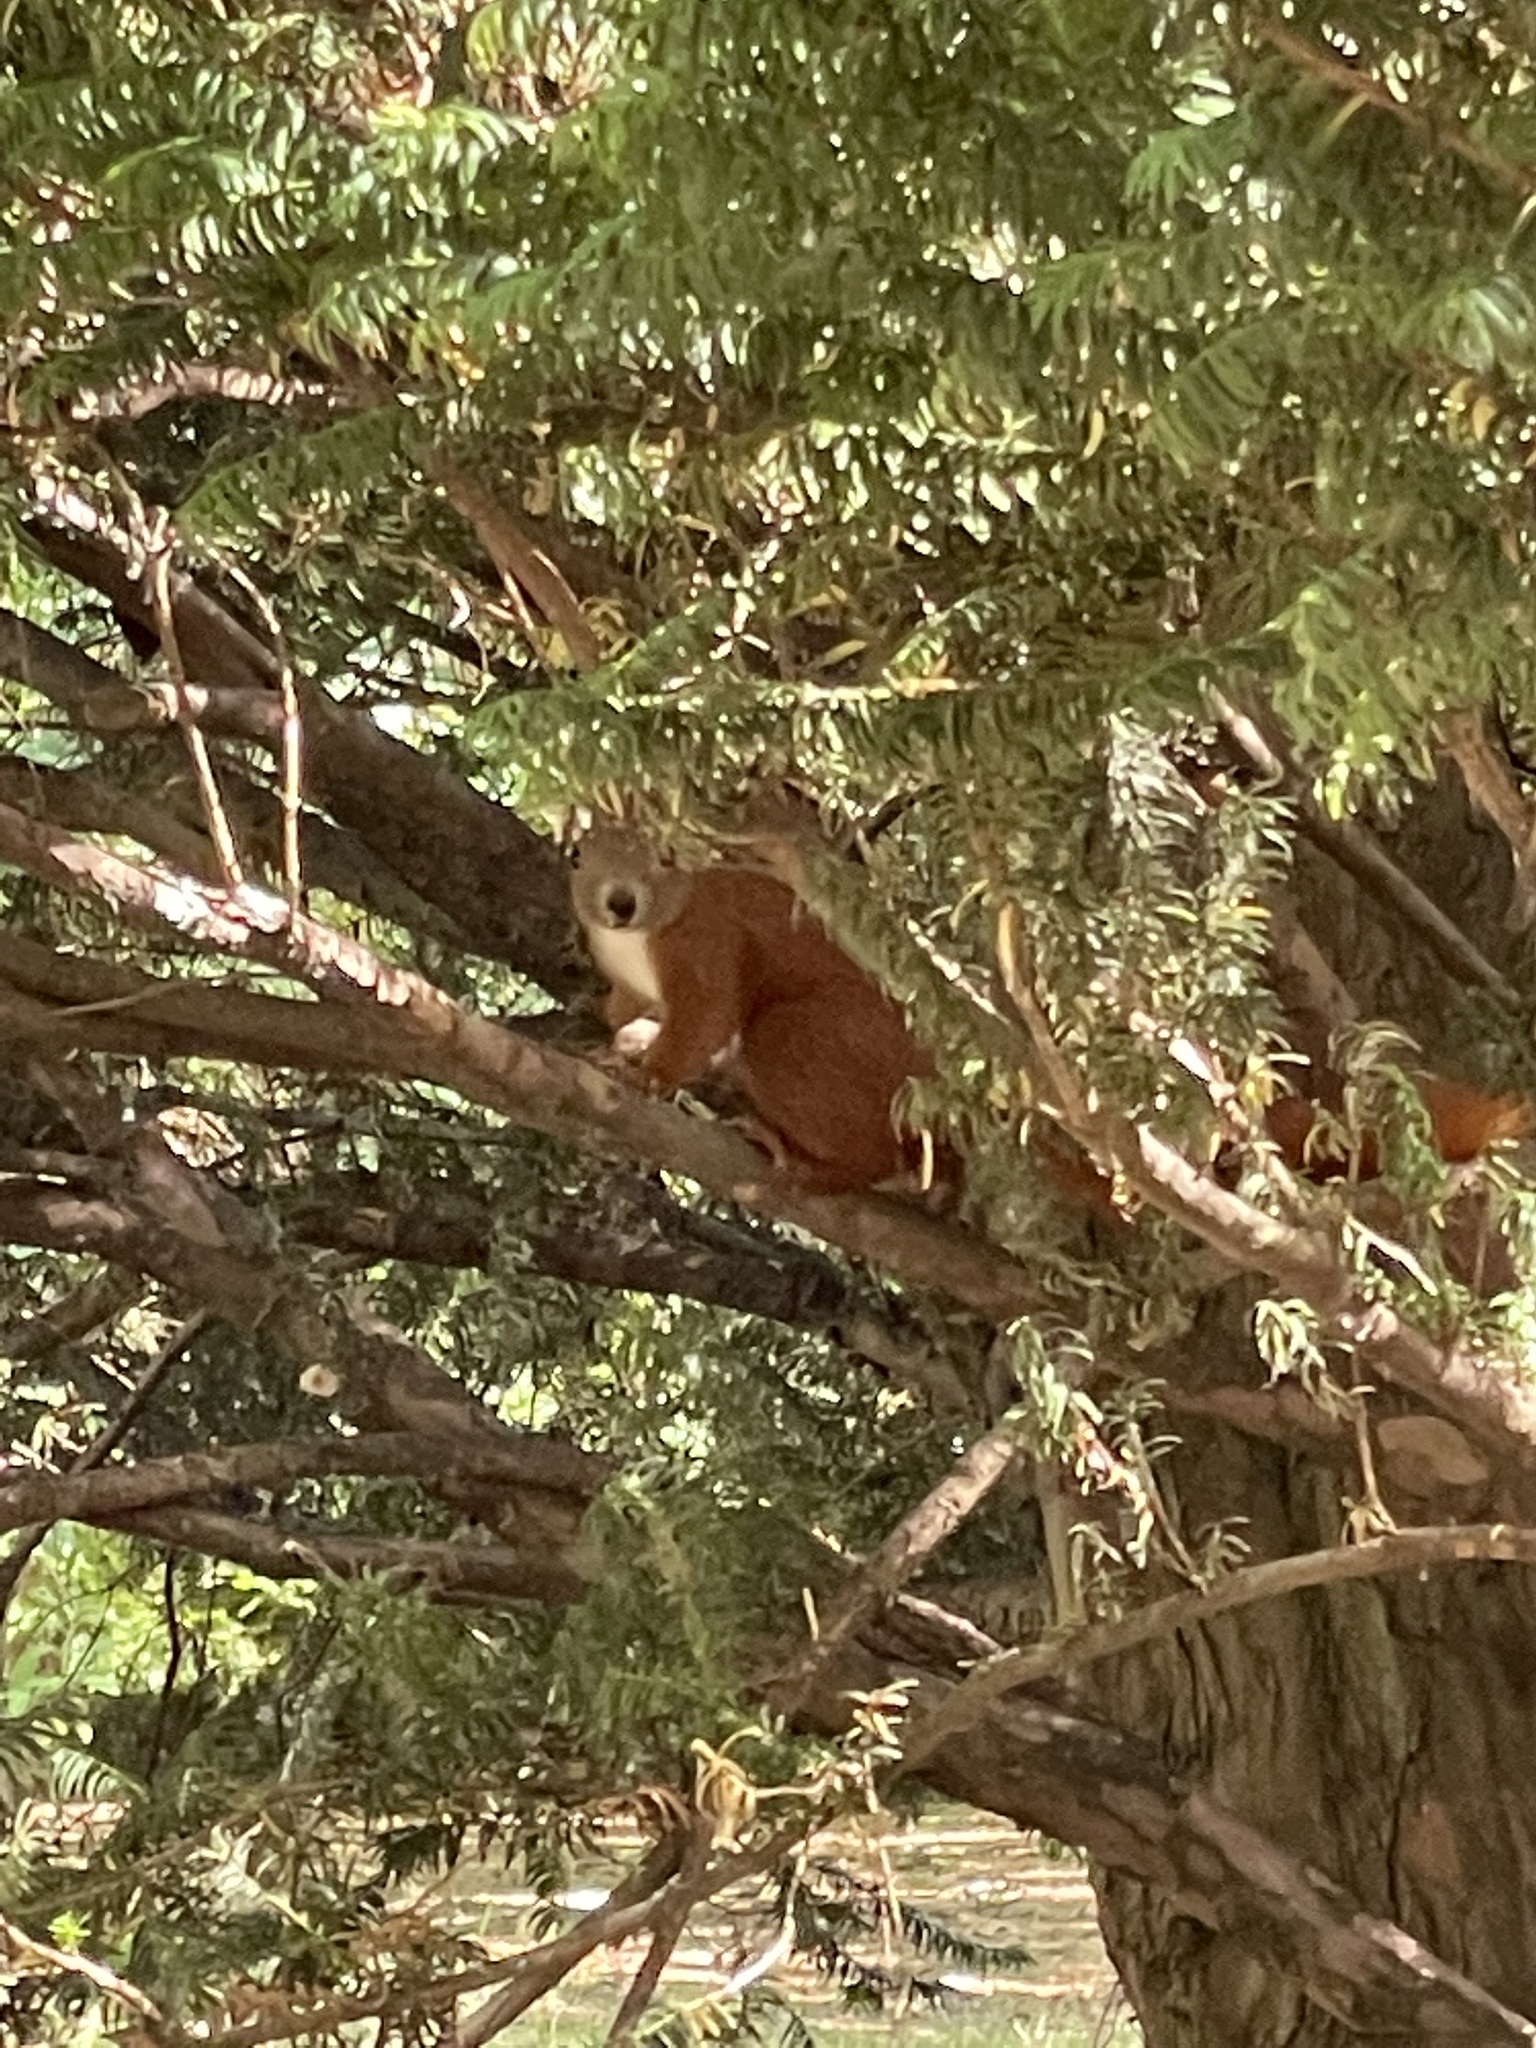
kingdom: Animalia
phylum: Chordata
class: Mammalia
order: Rodentia
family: Sciuridae
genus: Sciurus
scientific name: Sciurus vulgaris
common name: Eurasian red squirrel
